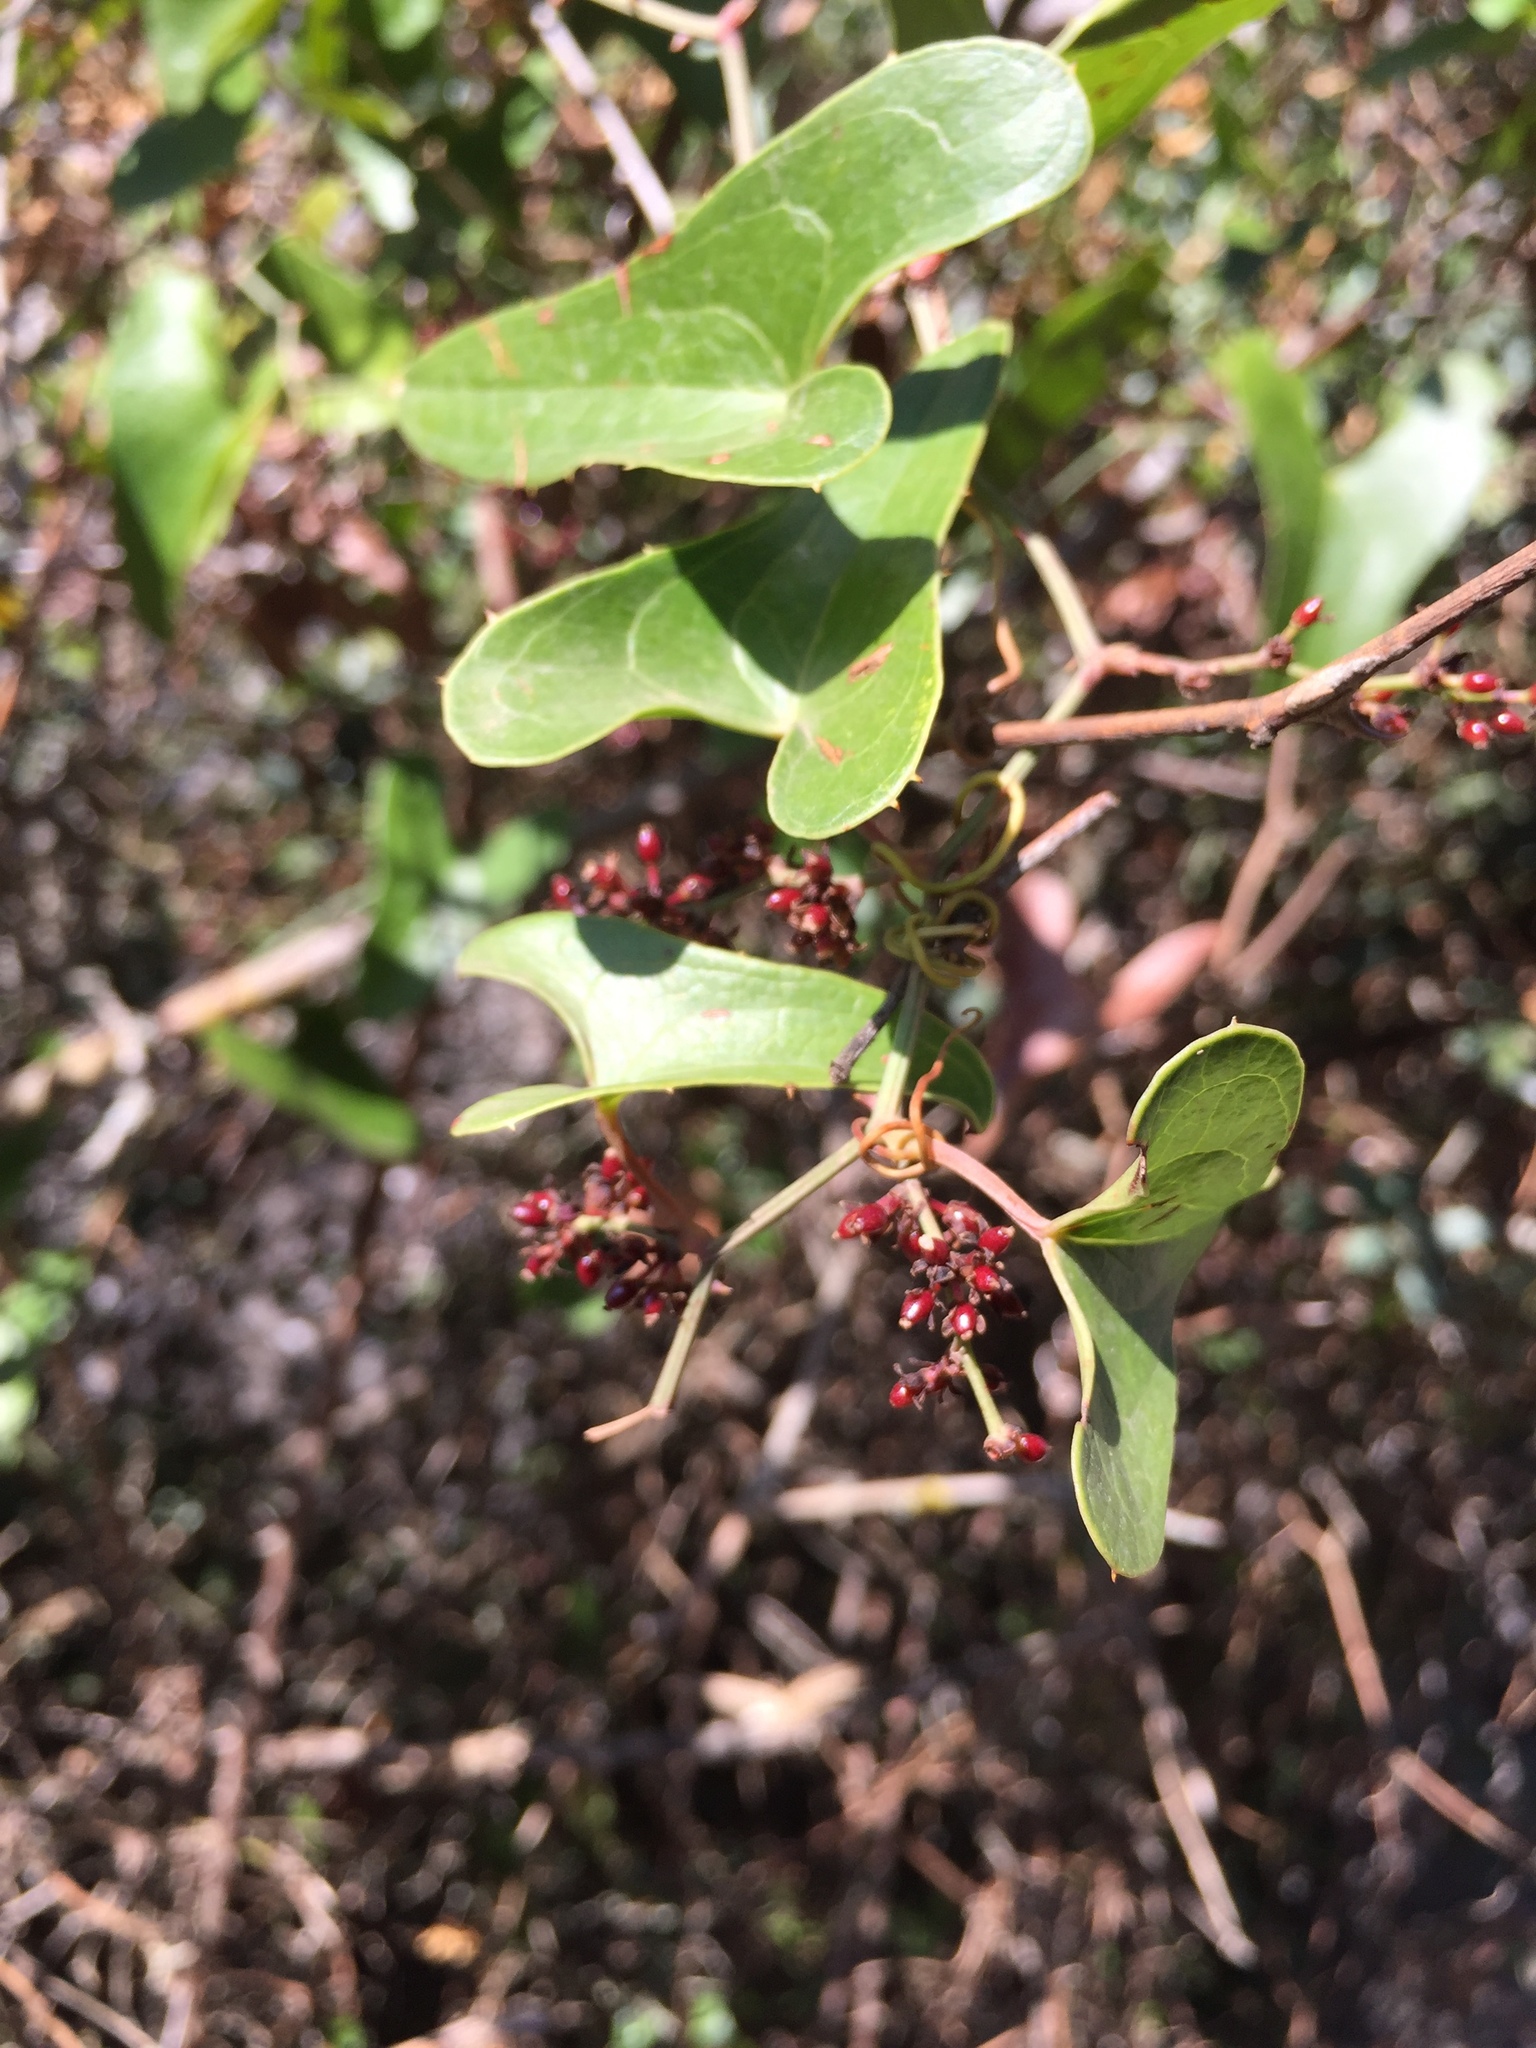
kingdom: Plantae
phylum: Tracheophyta
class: Liliopsida
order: Liliales
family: Smilacaceae
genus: Smilax
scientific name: Smilax aspera
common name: Common smilax
